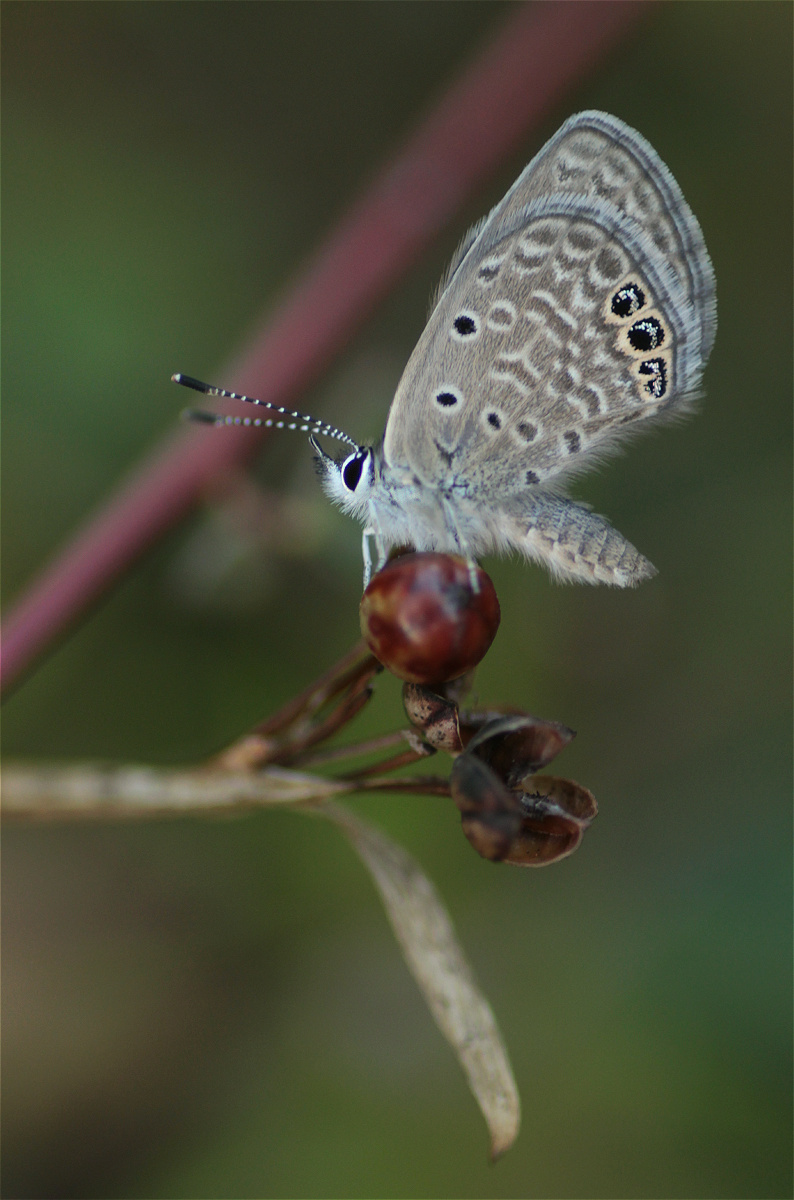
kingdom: Animalia
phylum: Arthropoda
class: Insecta
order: Lepidoptera
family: Lycaenidae
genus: Hemiargus
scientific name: Hemiargus ramon
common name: Ramon blue
